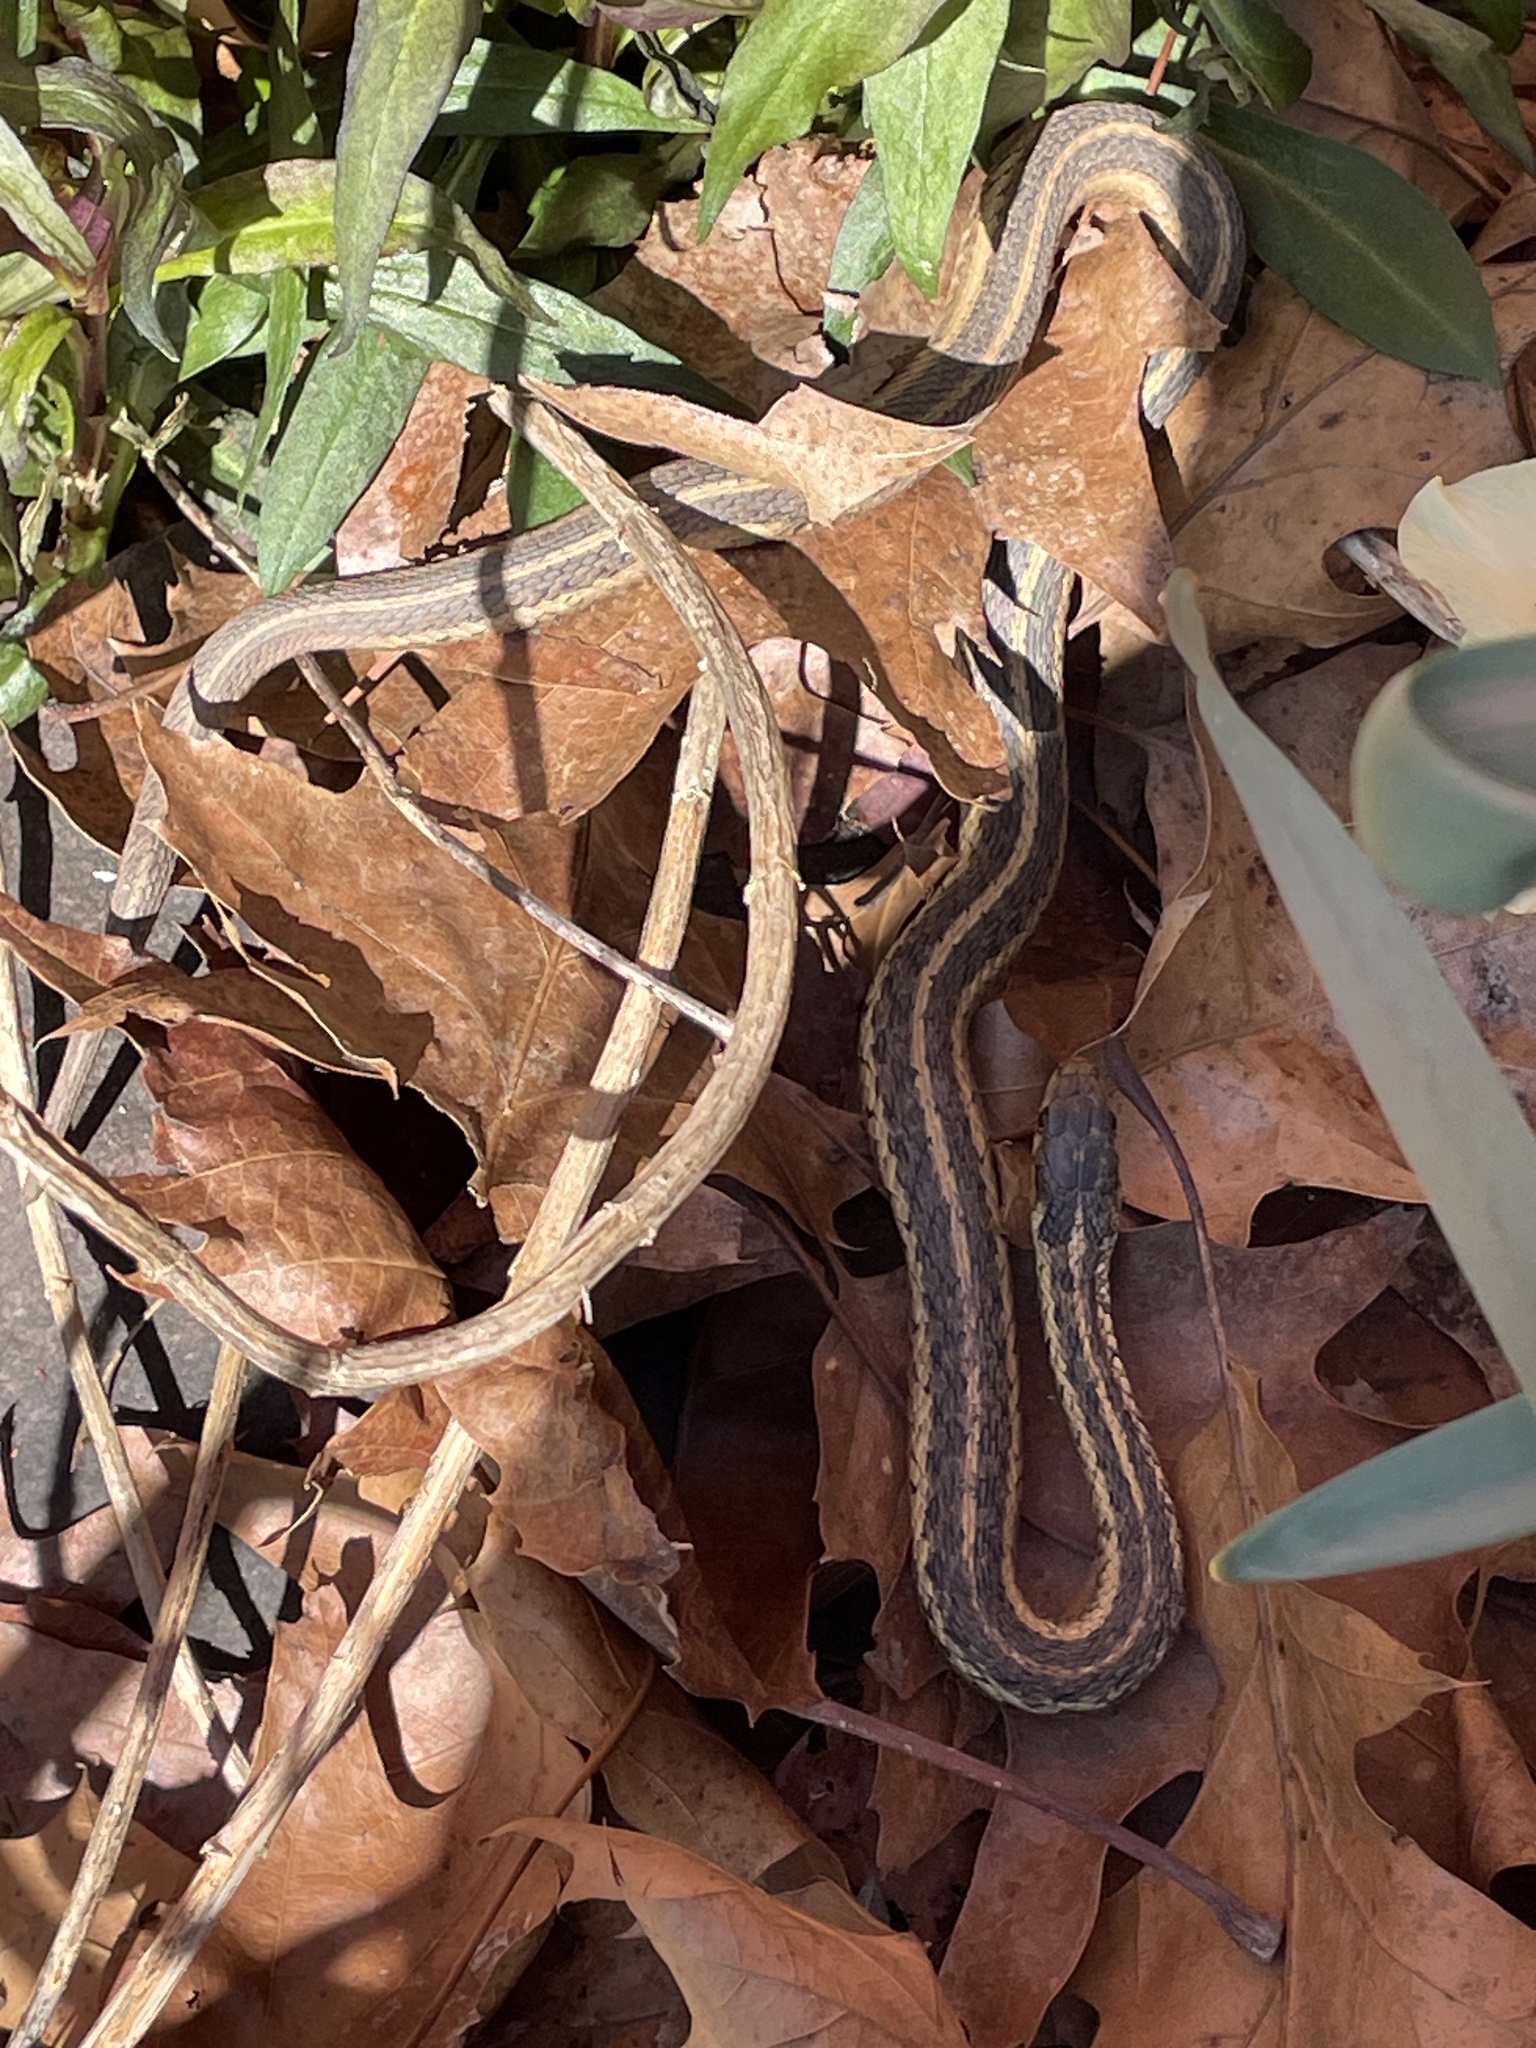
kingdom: Animalia
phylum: Chordata
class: Squamata
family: Colubridae
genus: Thamnophis
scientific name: Thamnophis sirtalis
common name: Common garter snake
